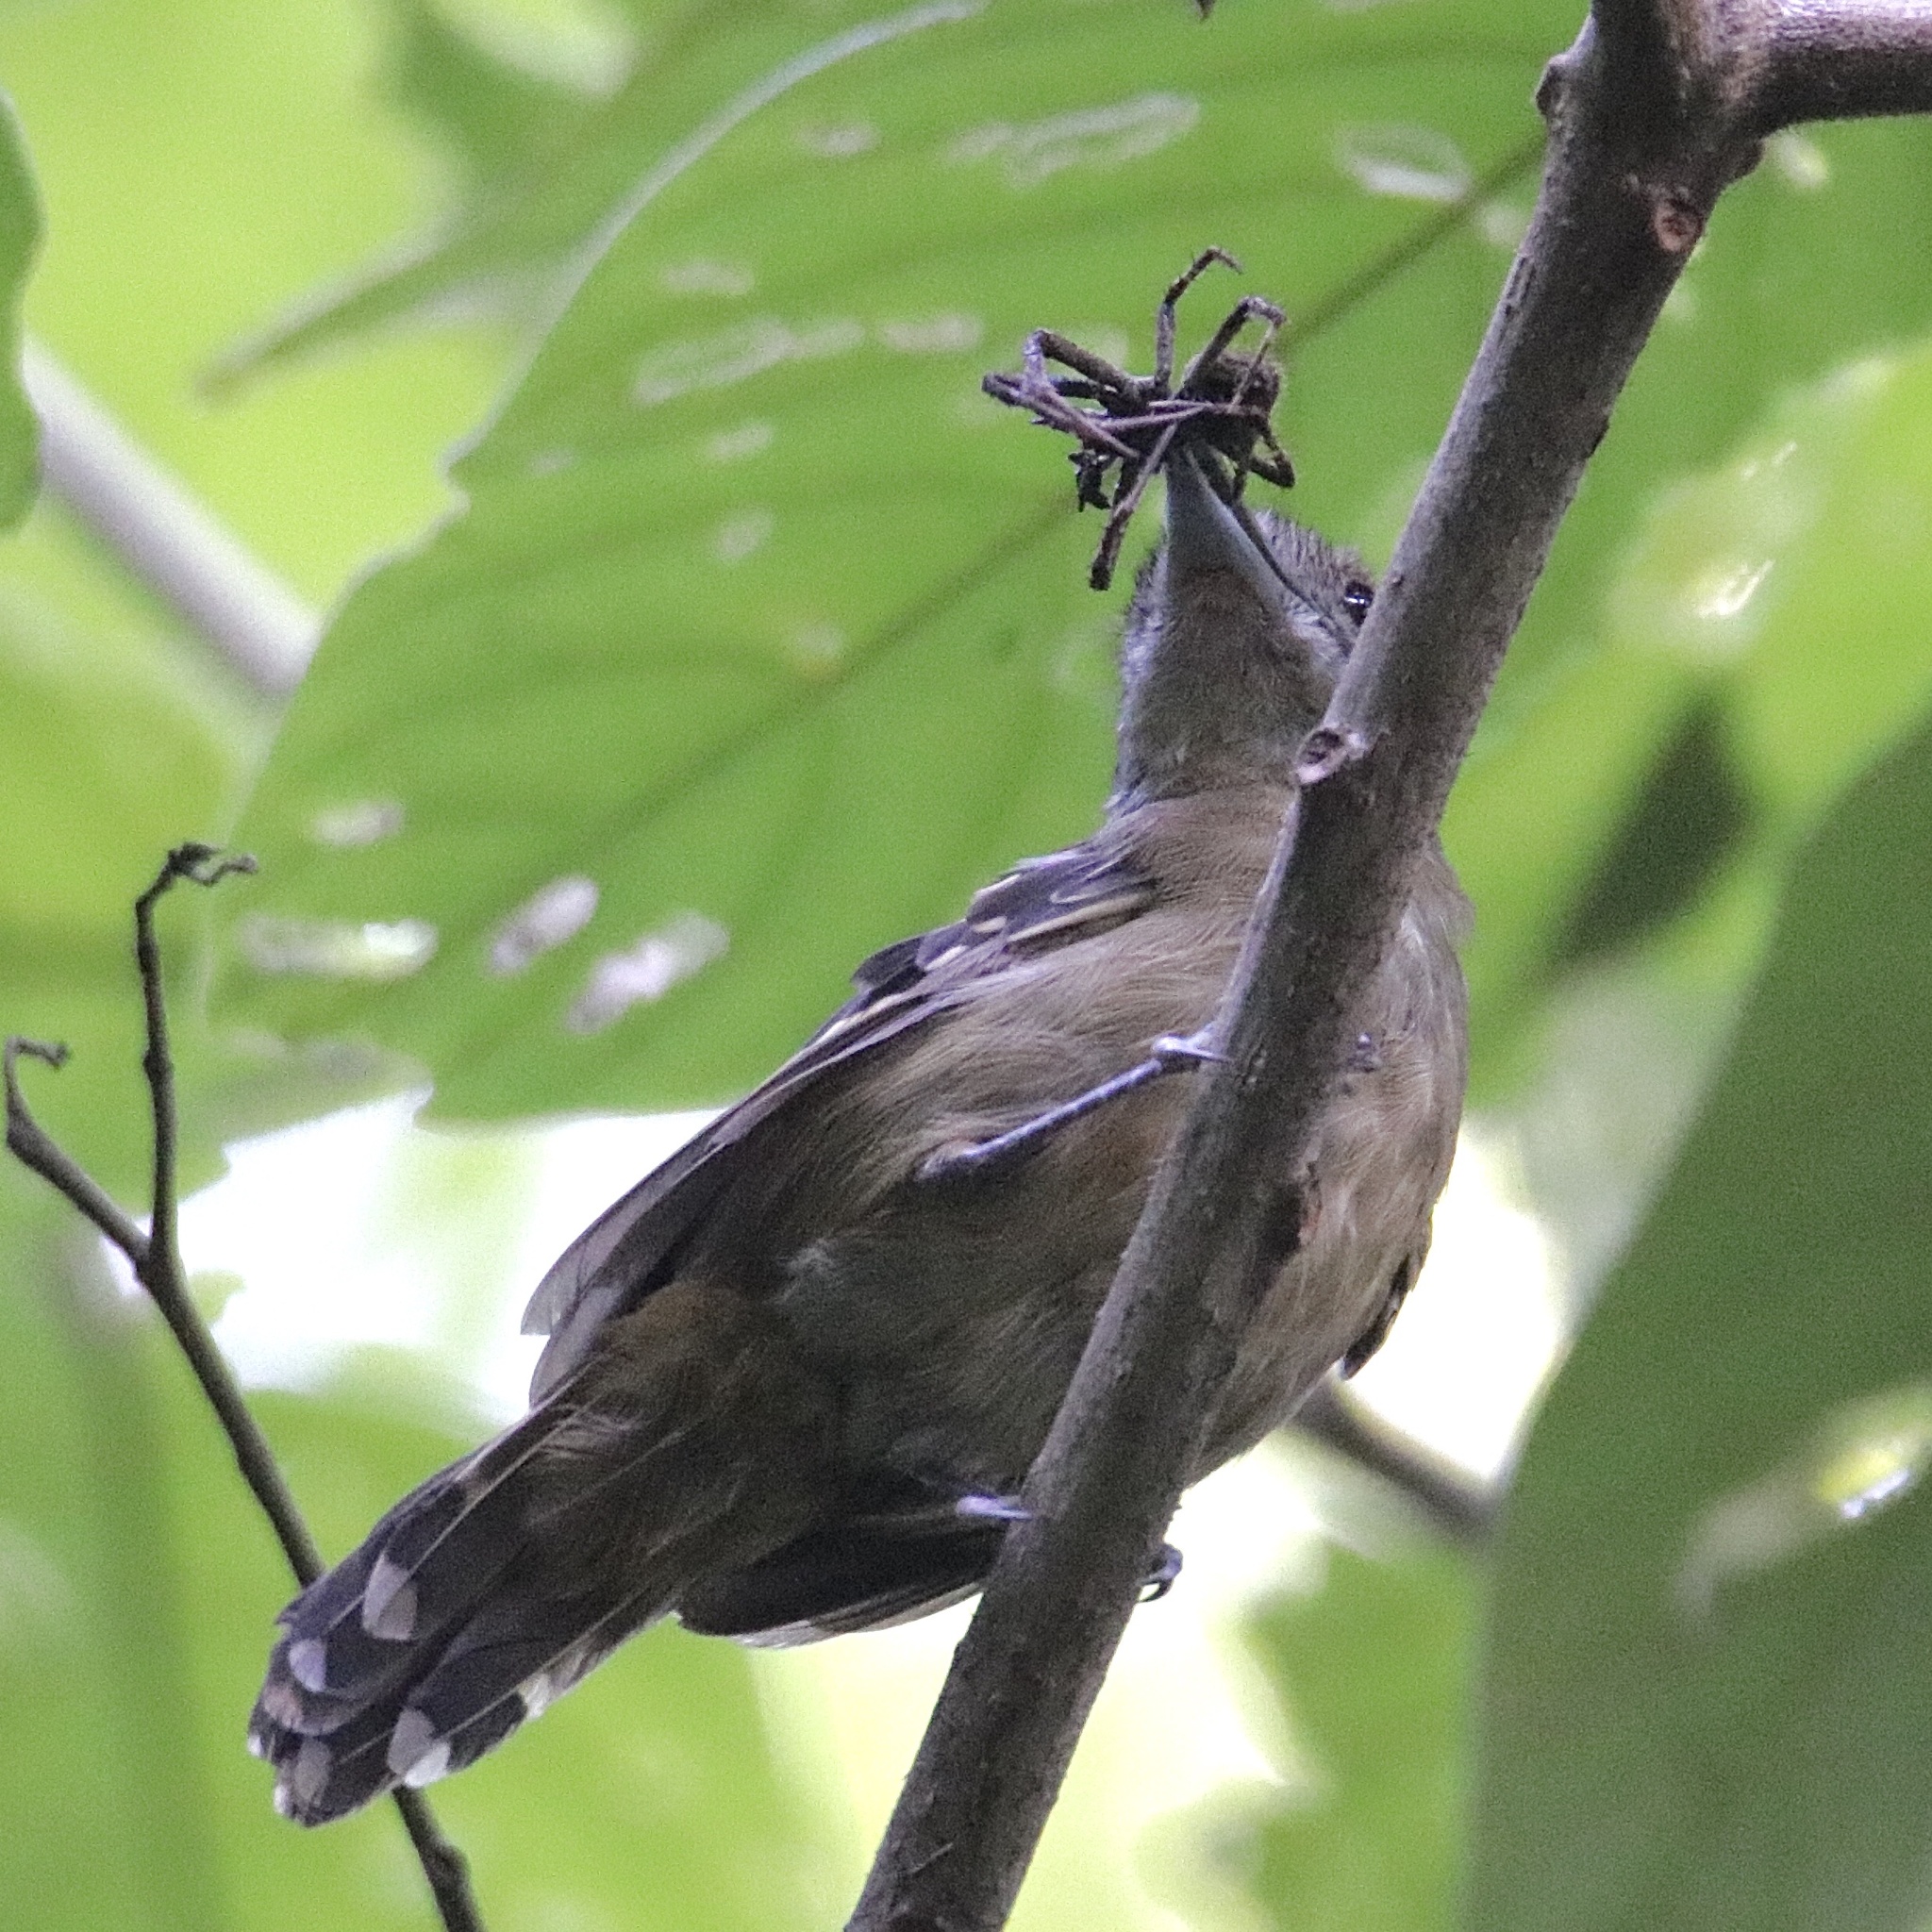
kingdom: Animalia
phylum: Chordata
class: Aves
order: Passeriformes
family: Thamnophilidae
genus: Thamnophilus
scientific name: Thamnophilus atrinucha
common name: Black-crowned antshrike
